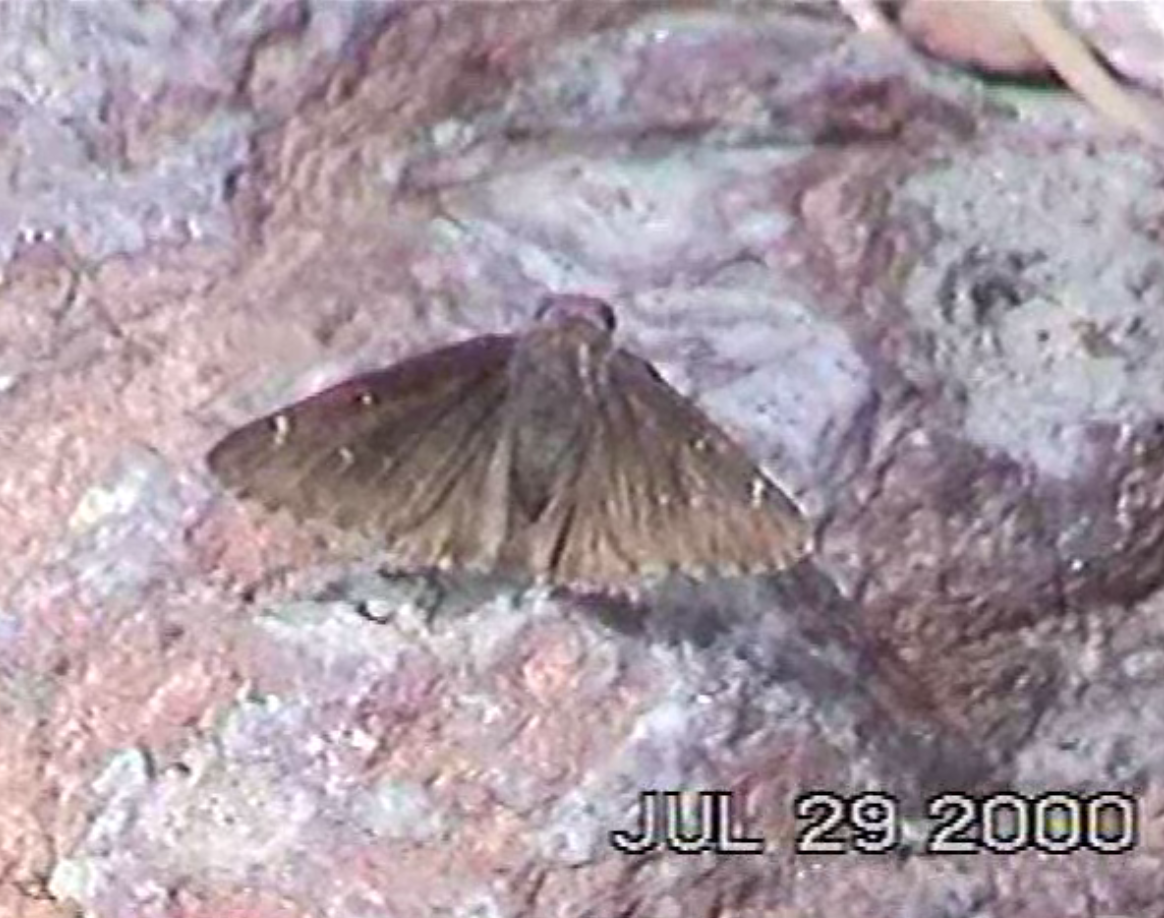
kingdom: Animalia
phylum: Arthropoda
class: Insecta
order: Lepidoptera
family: Hesperiidae
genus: Thorybes
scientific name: Thorybes pylades
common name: Northern cloudywing
